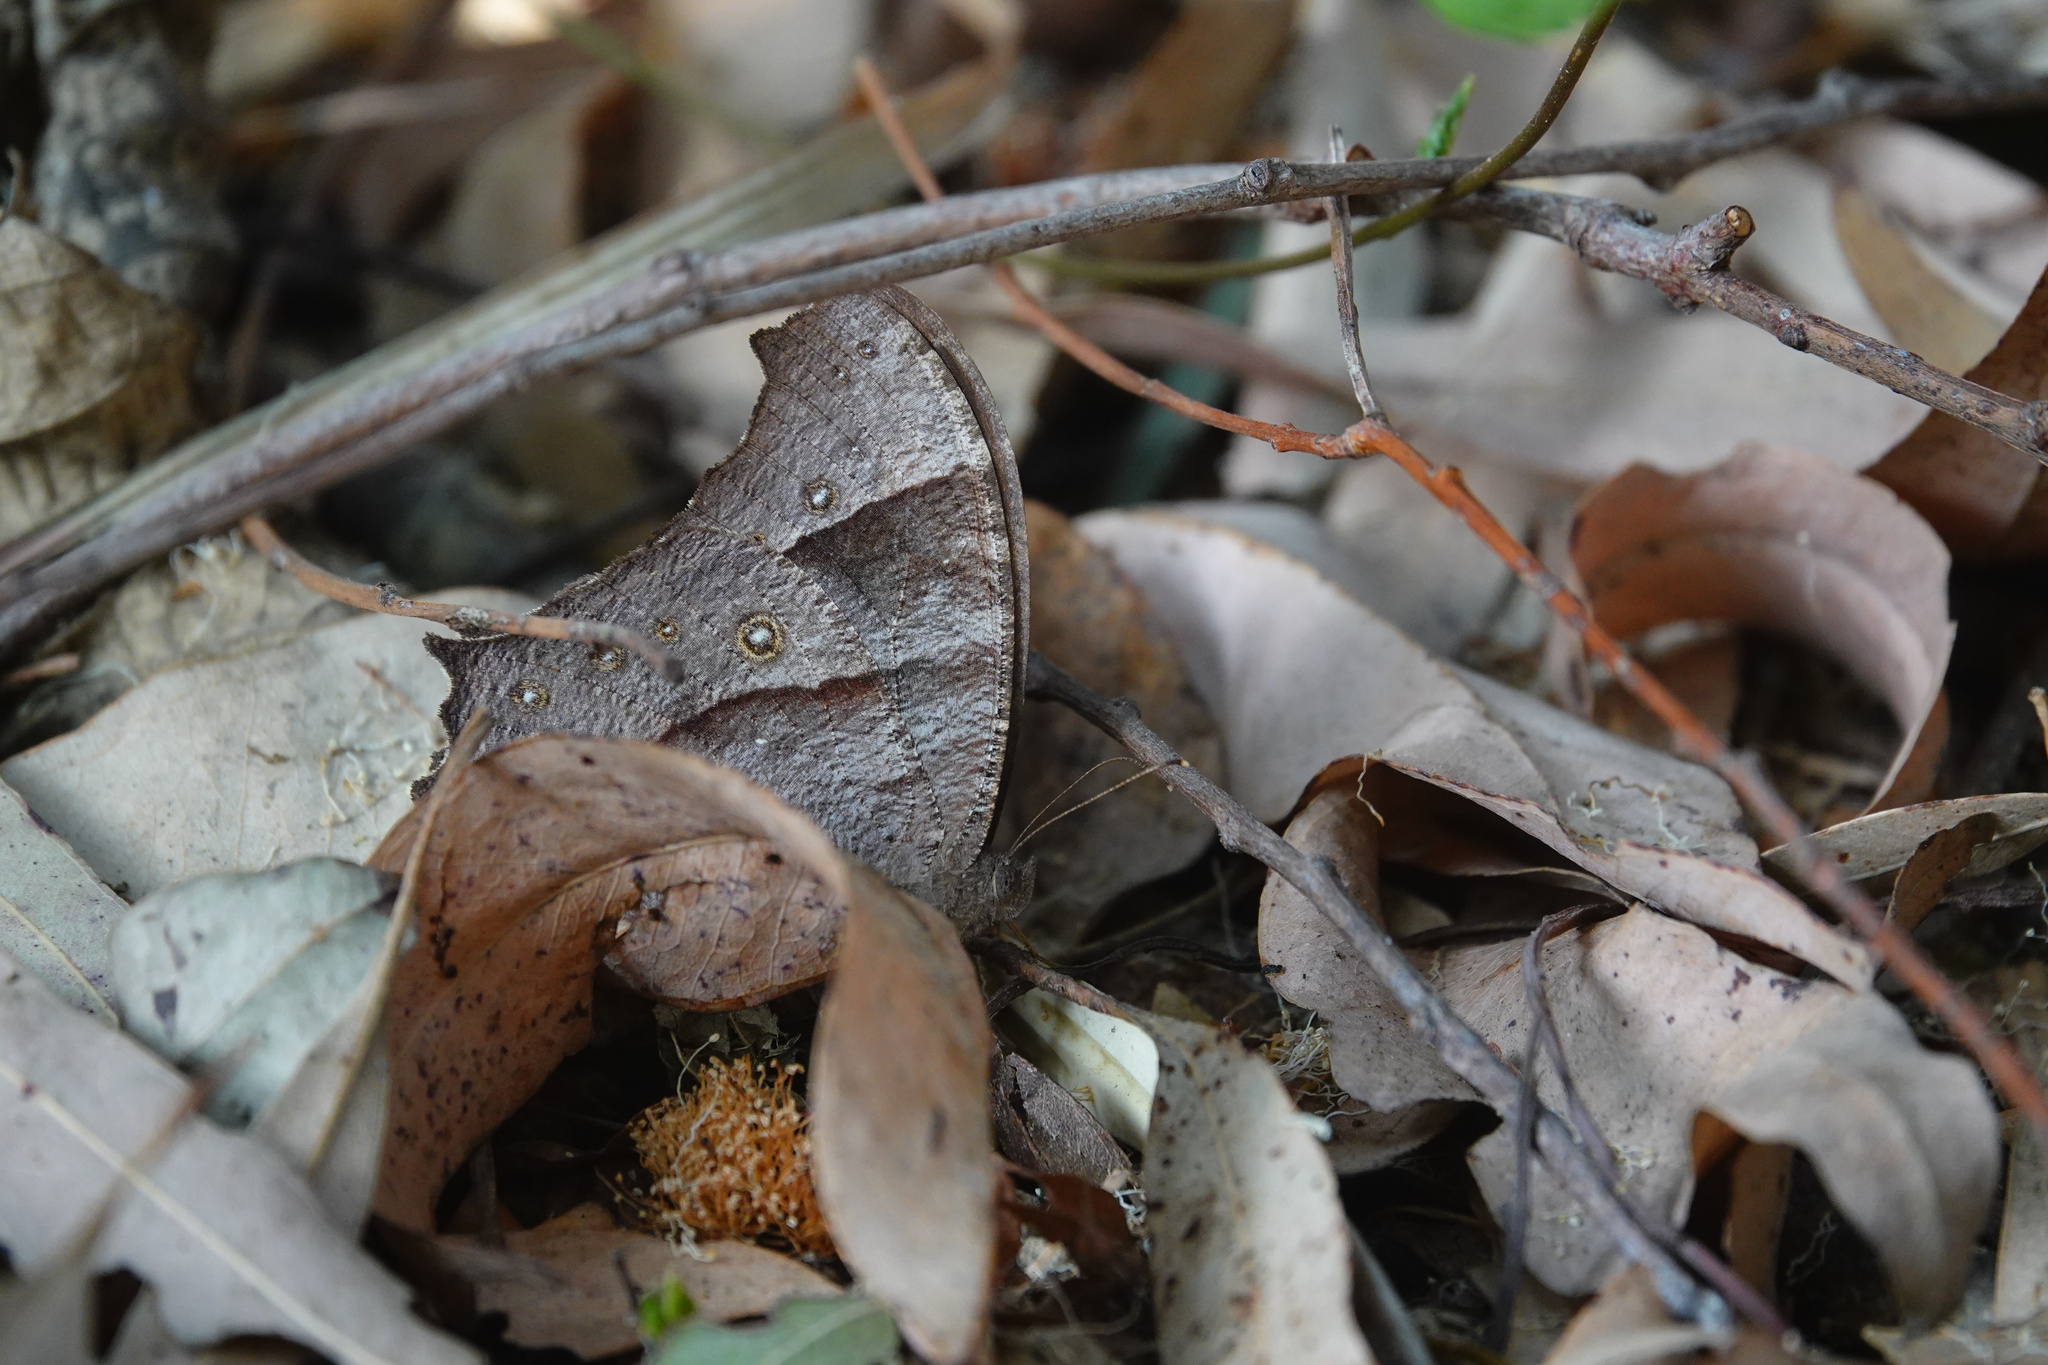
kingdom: Animalia
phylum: Arthropoda
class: Insecta
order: Lepidoptera
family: Nymphalidae
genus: Melanitis
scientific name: Melanitis leda
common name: Twilight brown
